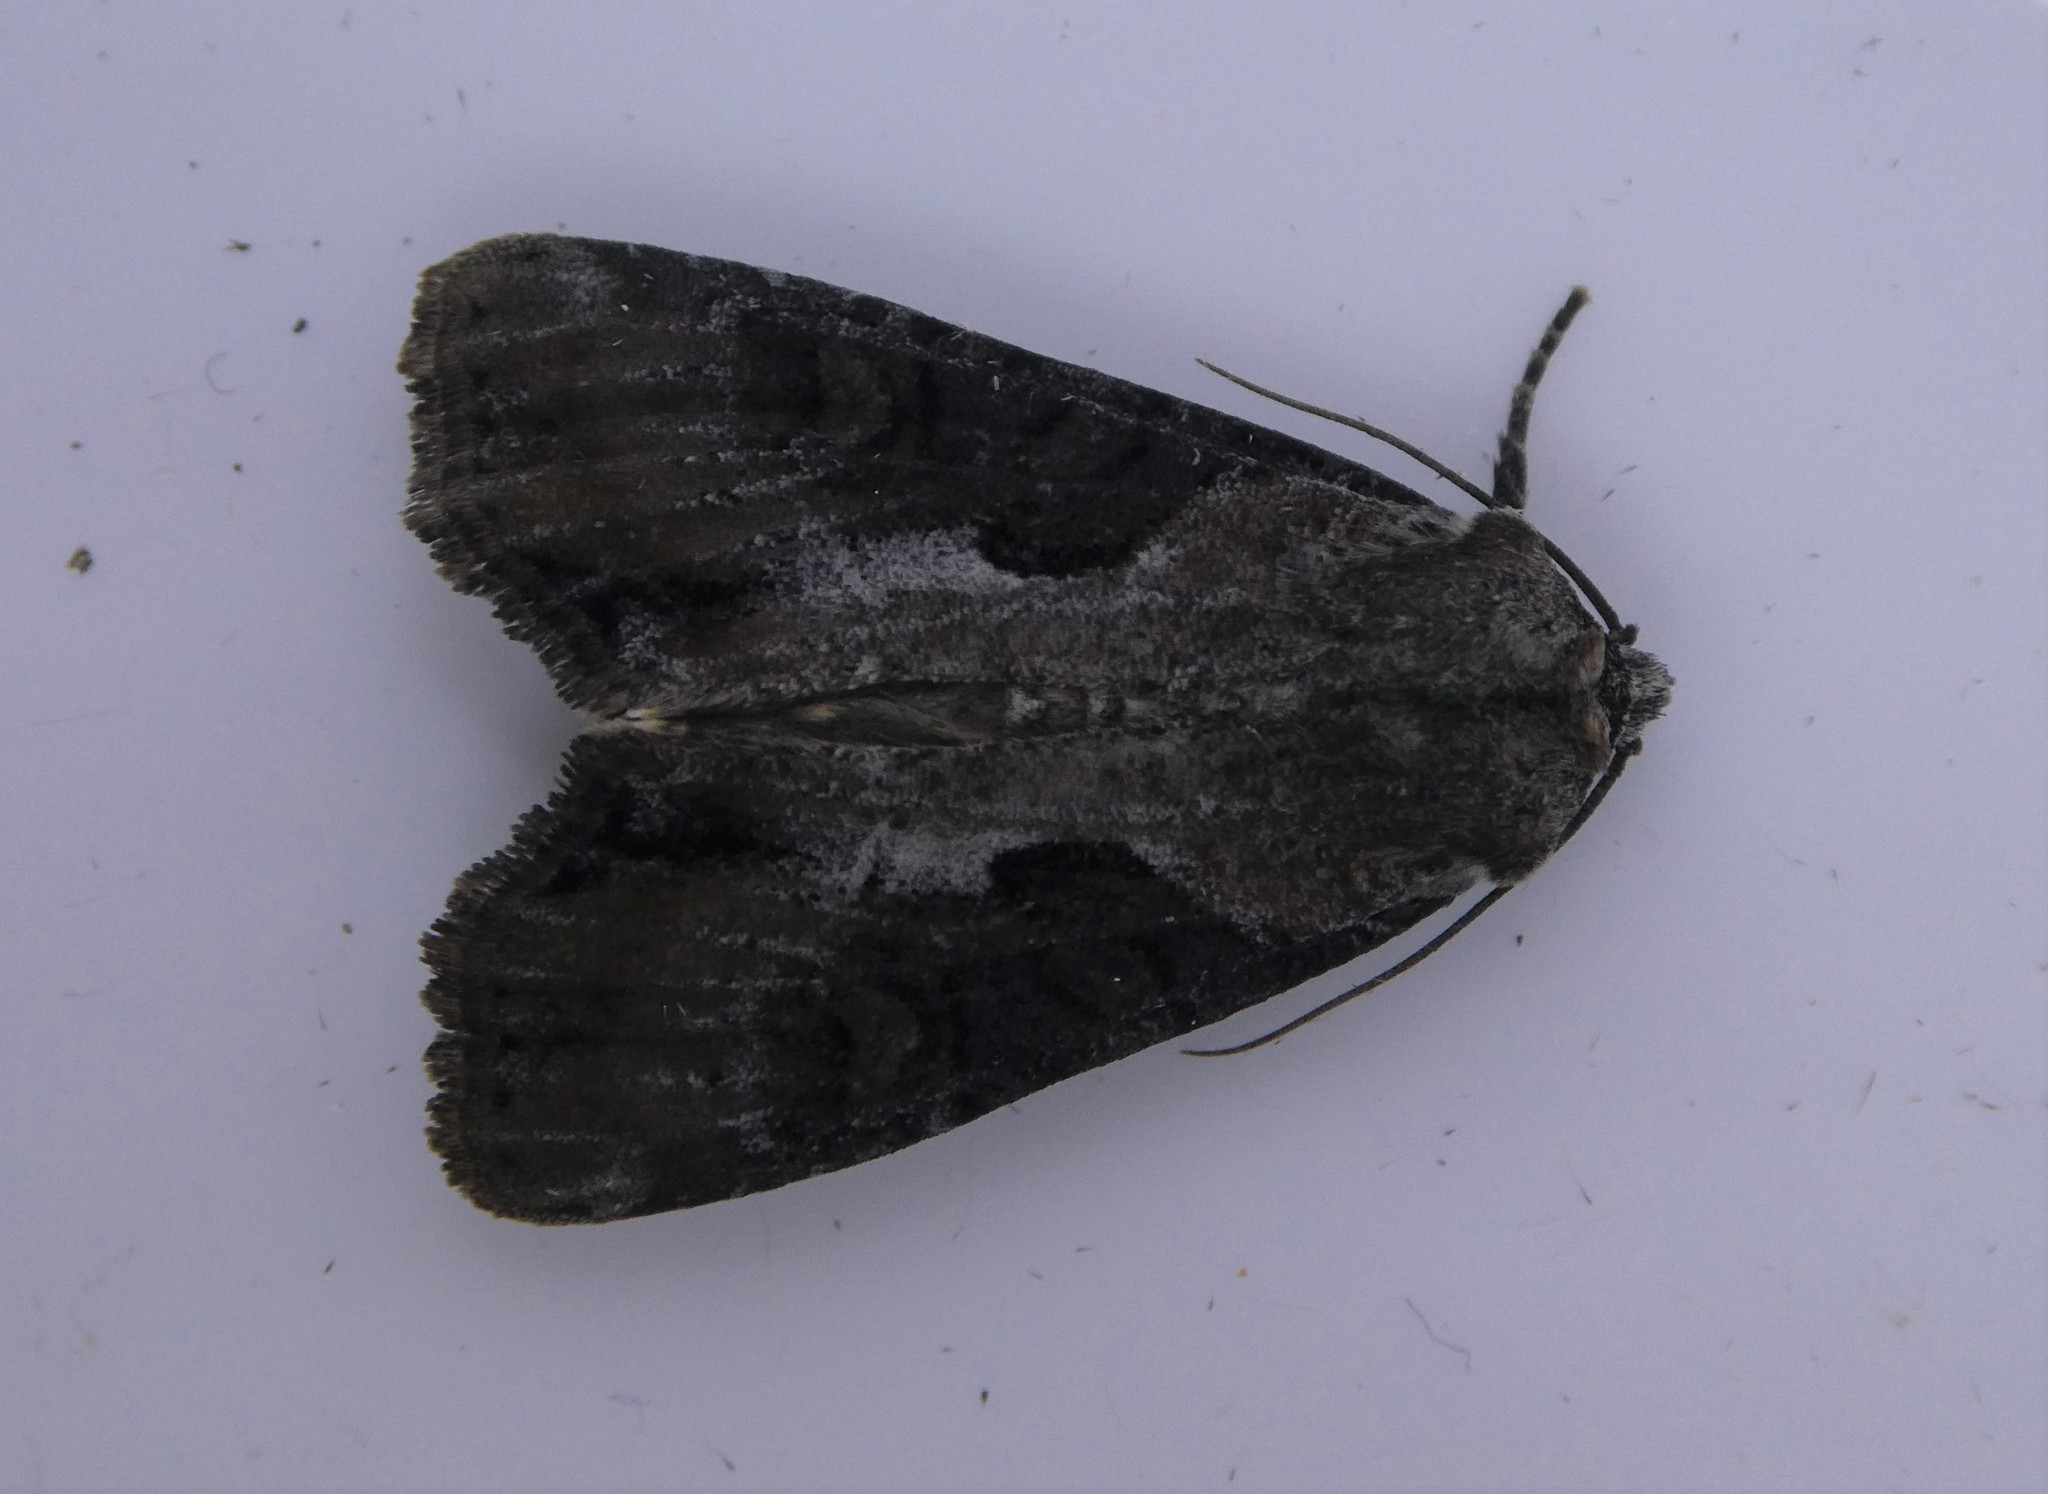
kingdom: Animalia
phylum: Arthropoda
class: Insecta
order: Lepidoptera
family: Noctuidae
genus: Lateroligia
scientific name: Lateroligia ophiogramma
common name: Double lobed
